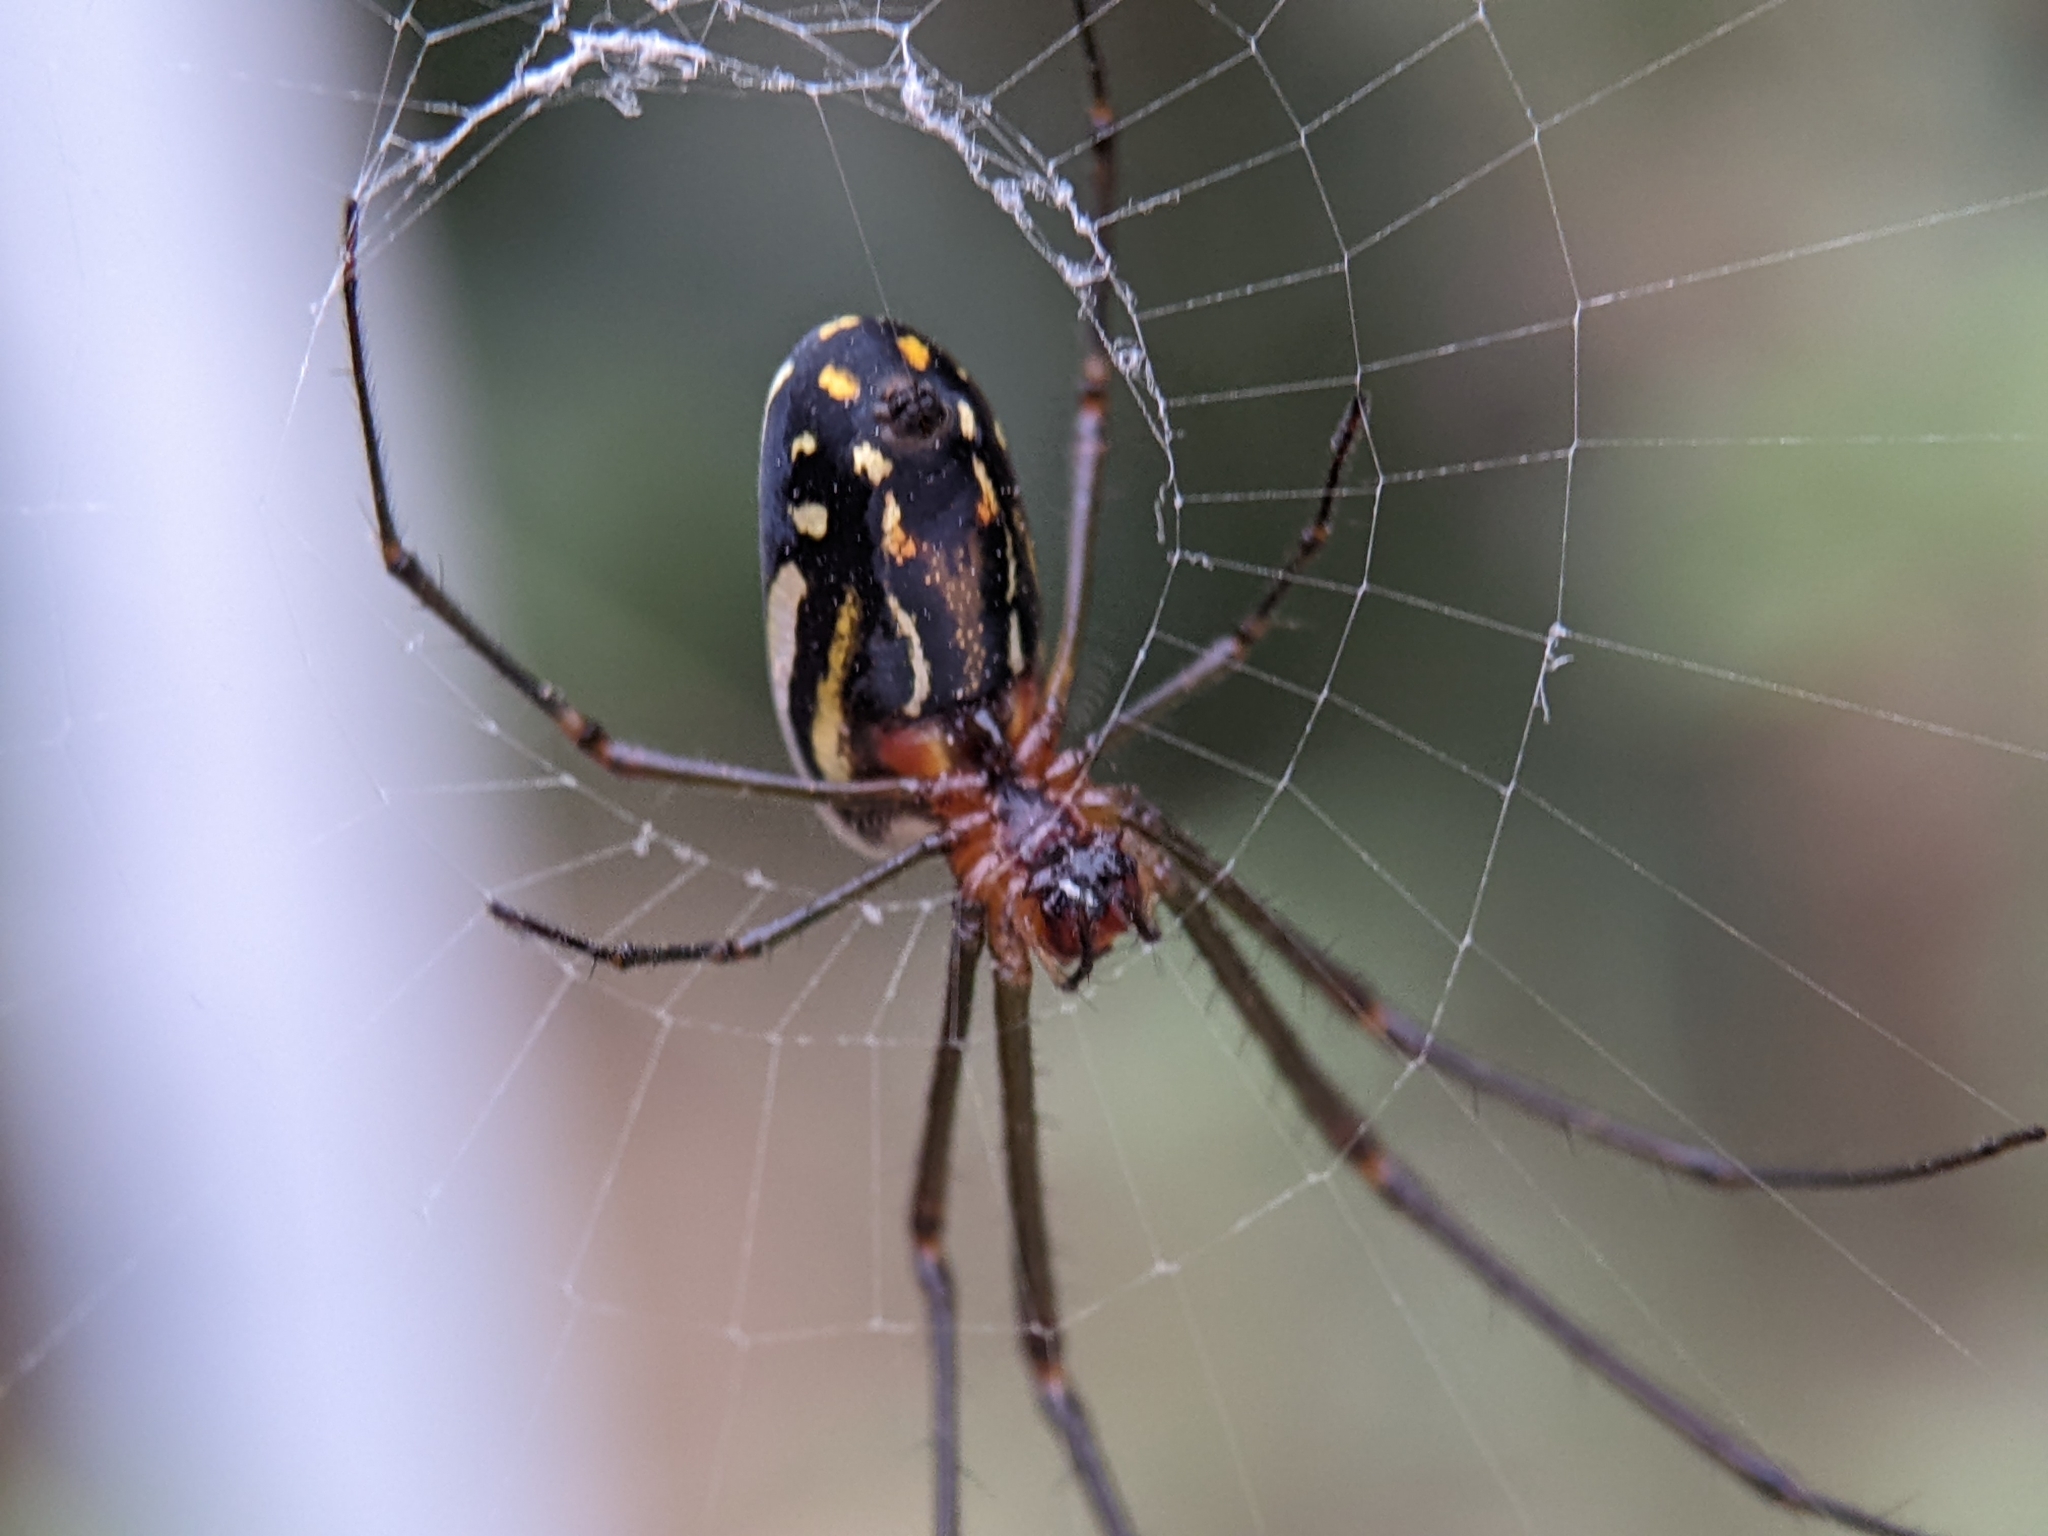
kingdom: Animalia
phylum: Arthropoda
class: Arachnida
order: Araneae
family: Tetragnathidae
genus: Leucauge
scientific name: Leucauge argyra
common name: Longjawed orb weavers
